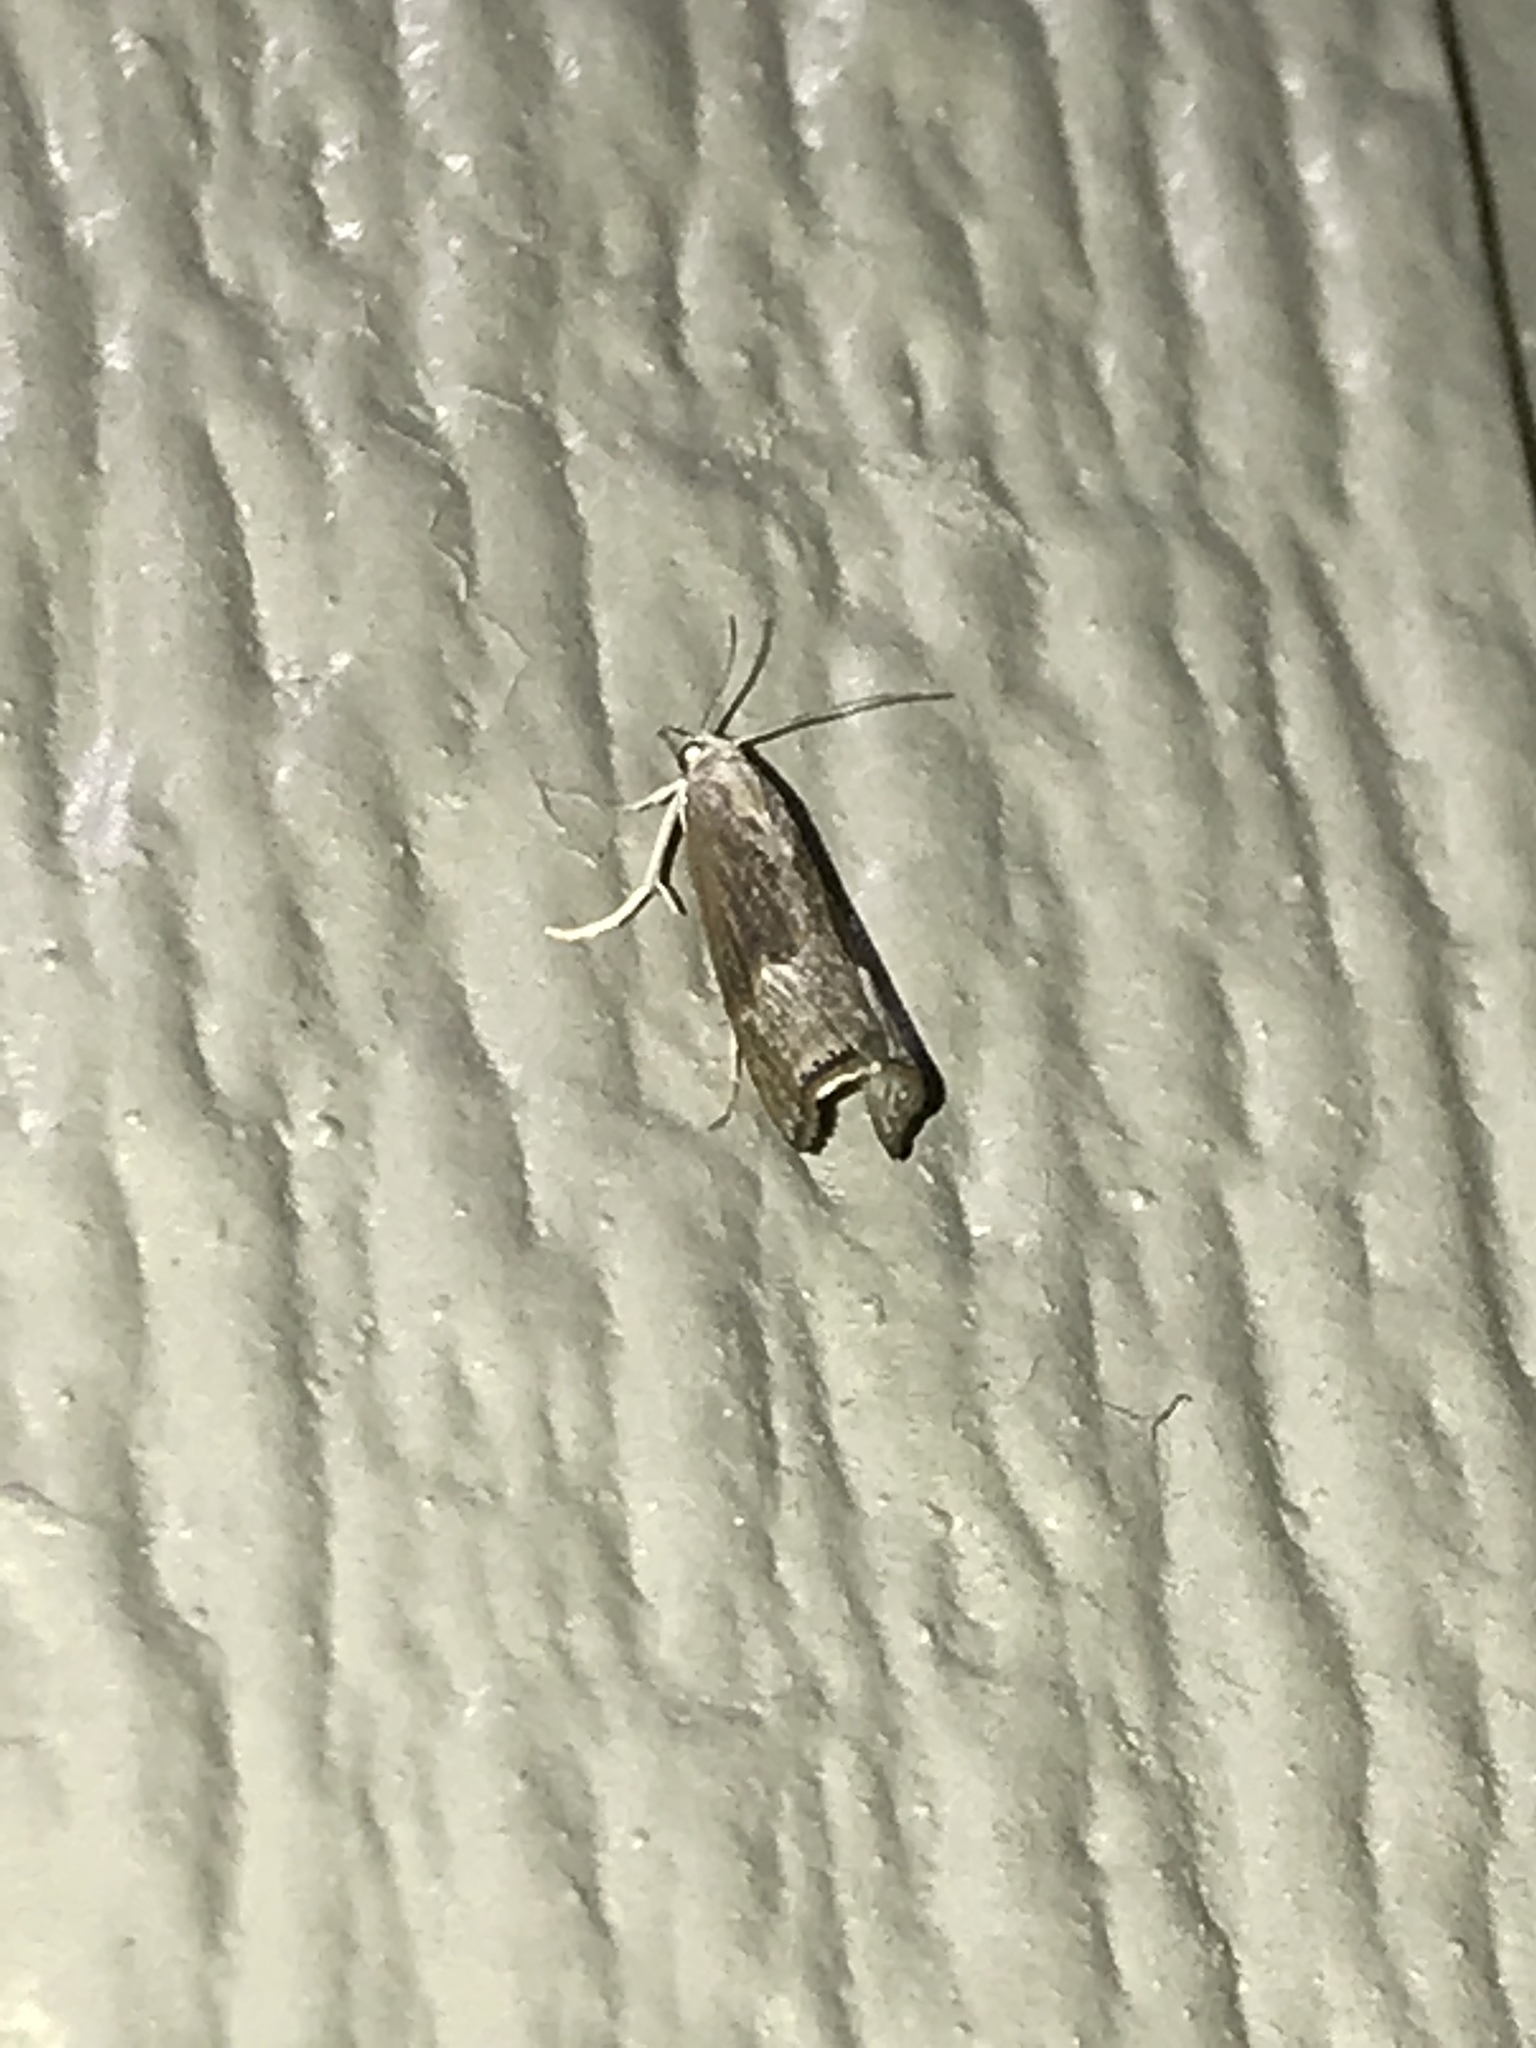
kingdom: Animalia
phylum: Arthropoda
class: Insecta
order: Lepidoptera
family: Crambidae
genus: Parapediasia
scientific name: Parapediasia teterellus
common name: Bluegrass webworm moth
